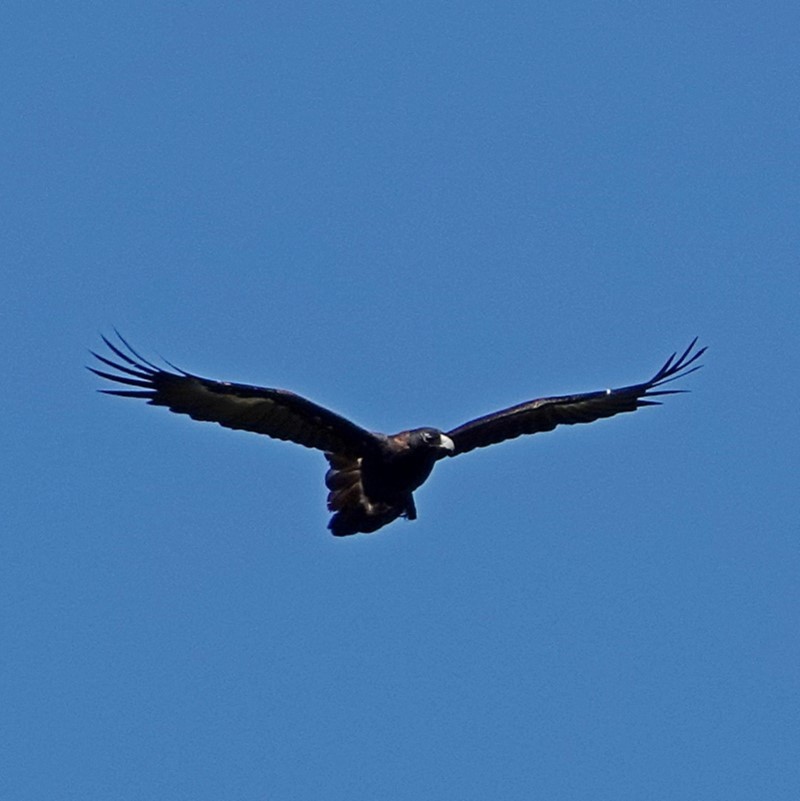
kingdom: Animalia
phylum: Chordata
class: Aves
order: Accipitriformes
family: Accipitridae
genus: Aquila
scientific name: Aquila audax
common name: Wedge-tailed eagle
